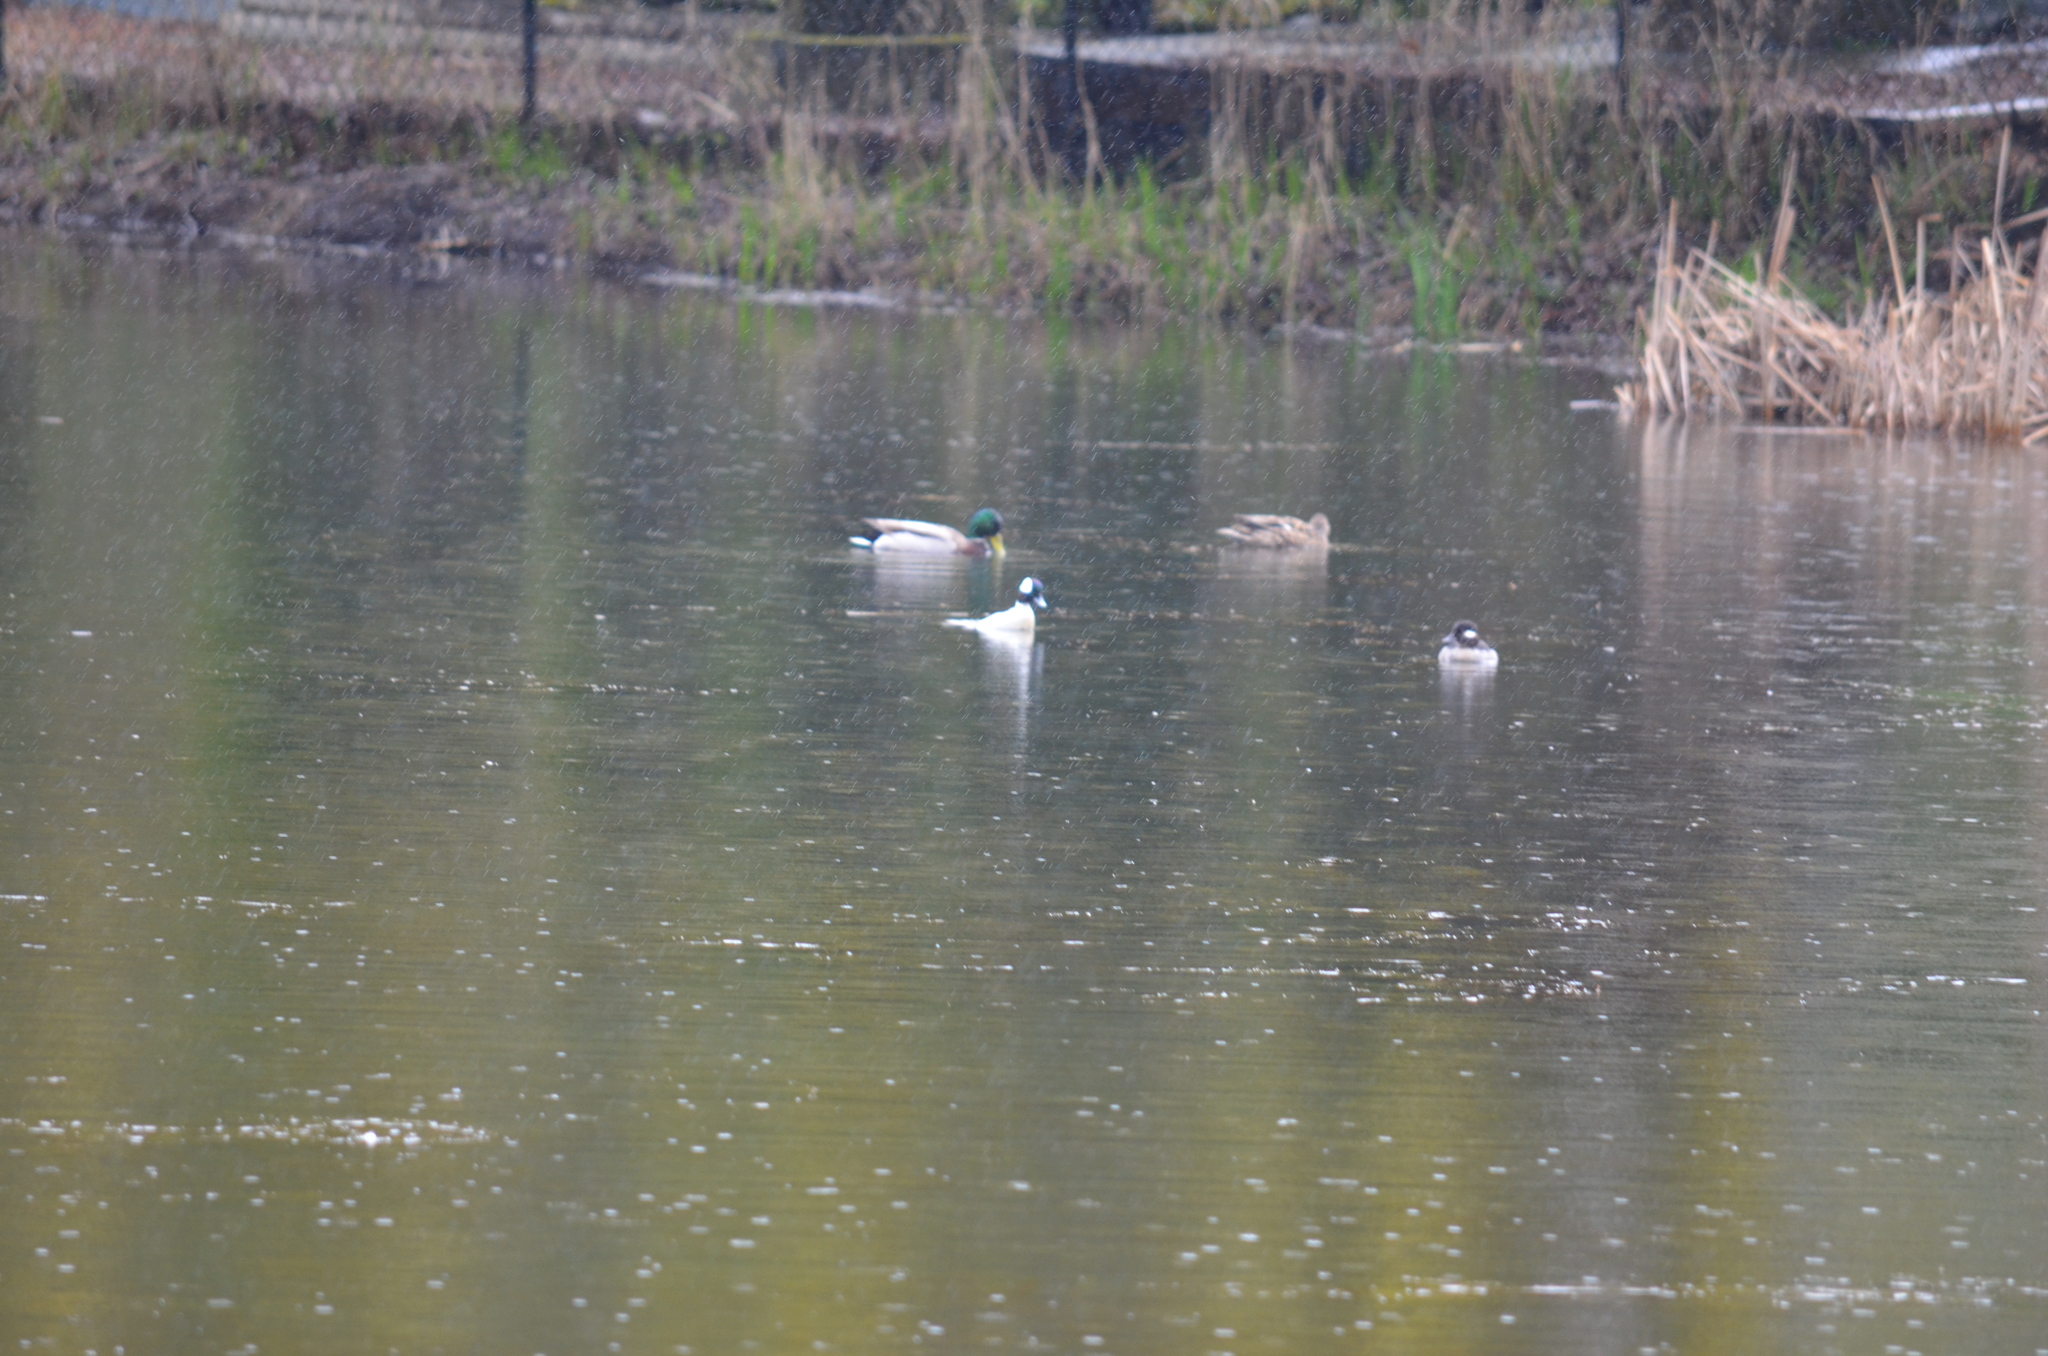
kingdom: Animalia
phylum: Chordata
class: Aves
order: Anseriformes
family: Anatidae
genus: Anas
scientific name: Anas platyrhynchos
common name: Mallard
